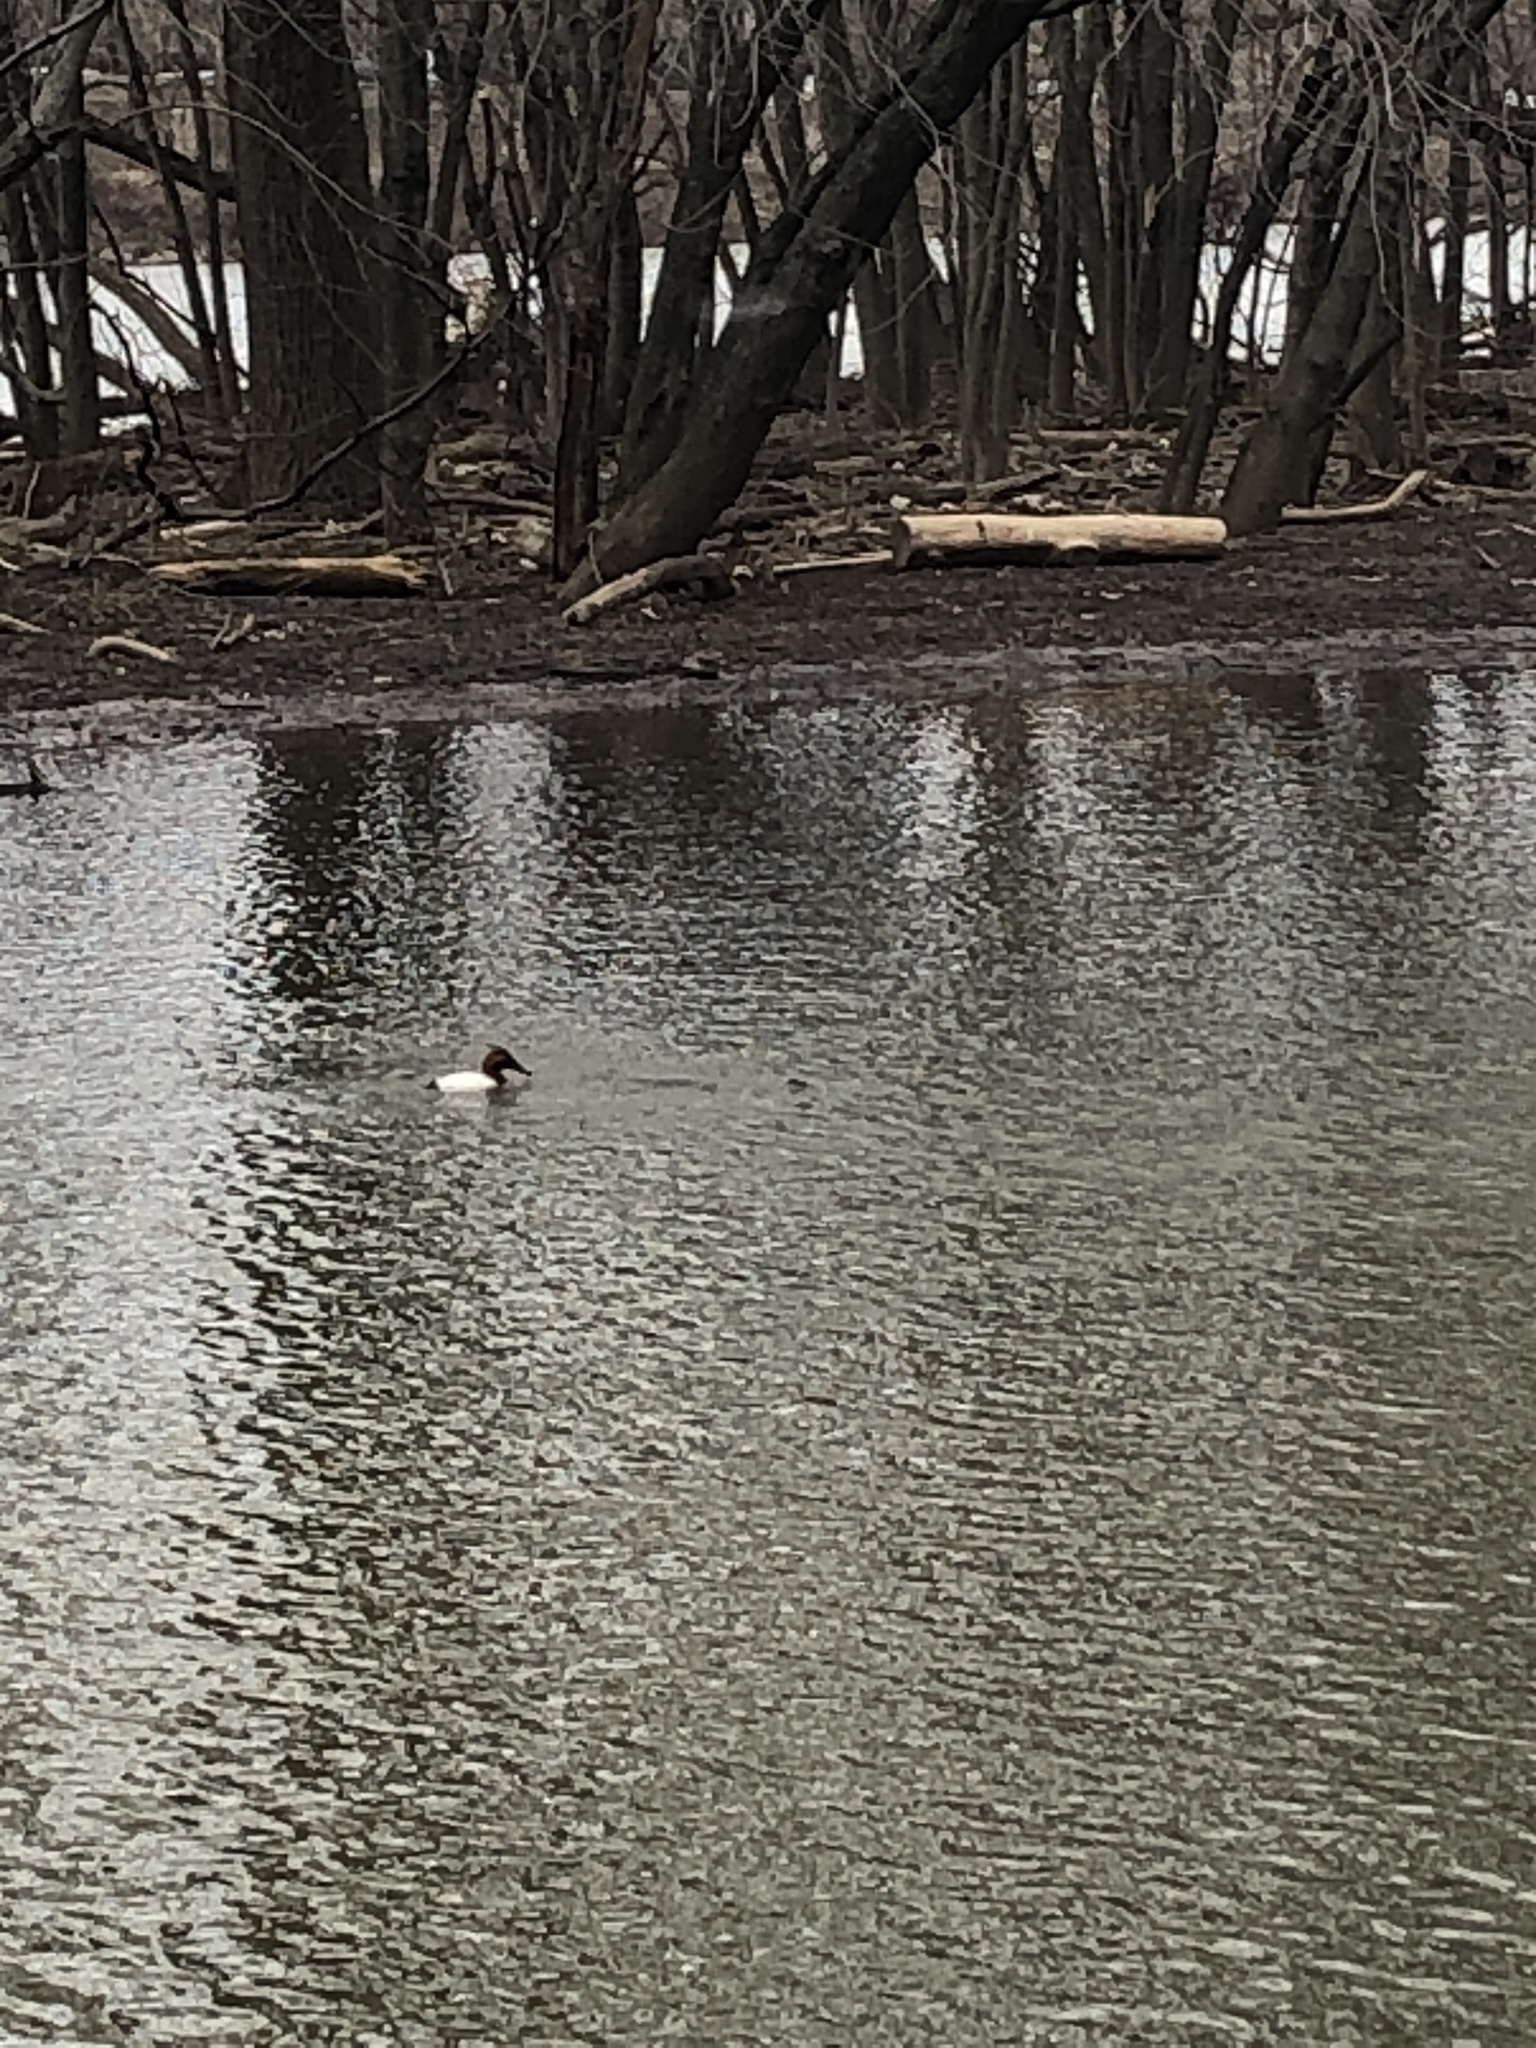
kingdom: Animalia
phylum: Chordata
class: Aves
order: Anseriformes
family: Anatidae
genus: Aythya
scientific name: Aythya valisineria
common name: Canvasback
